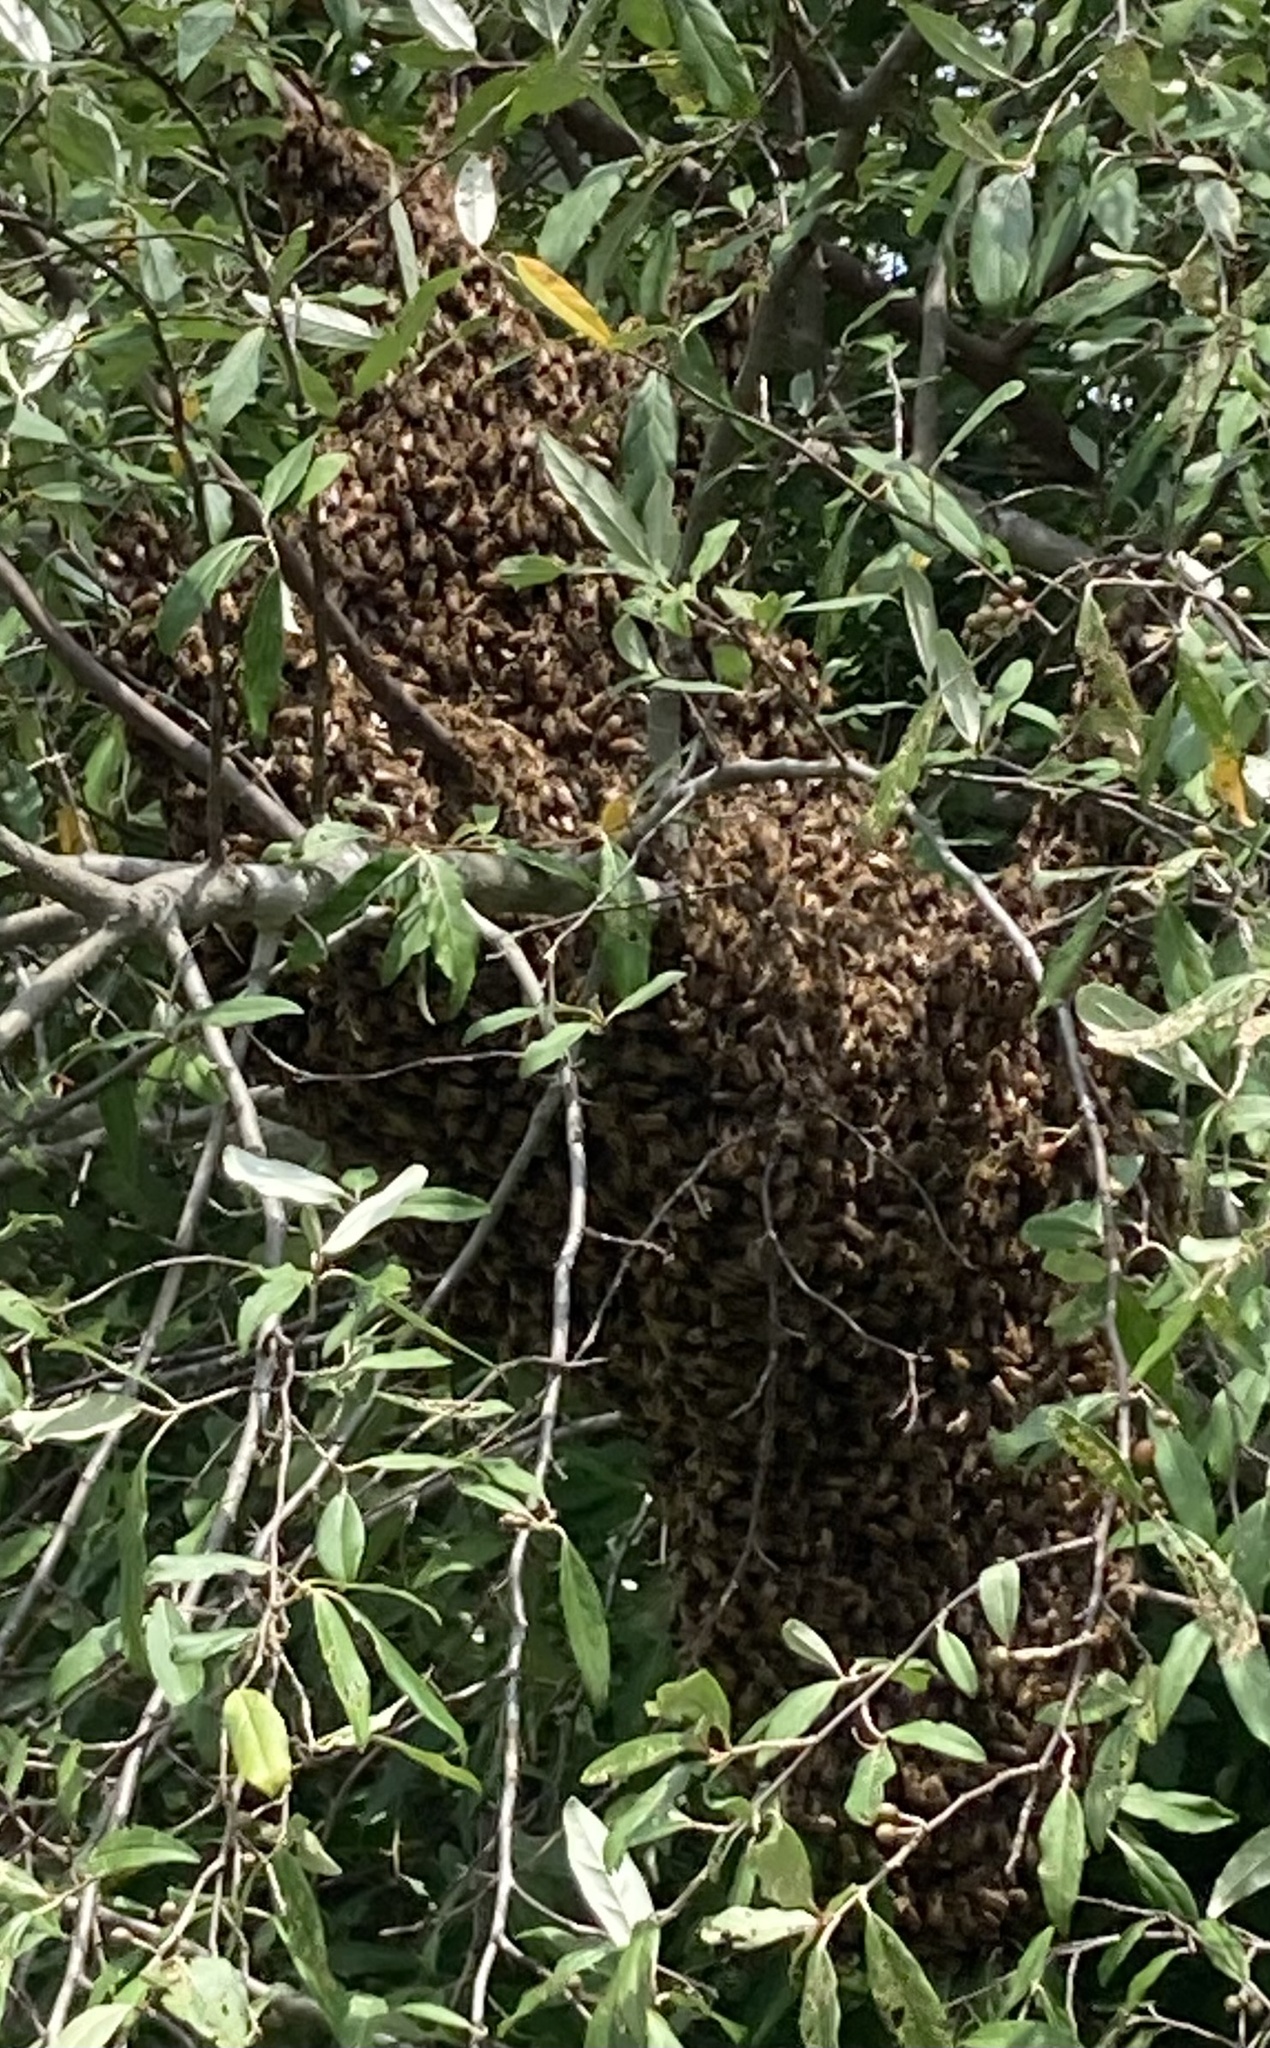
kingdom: Animalia
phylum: Arthropoda
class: Insecta
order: Hymenoptera
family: Apidae
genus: Apis
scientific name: Apis mellifera
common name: Honey bee
